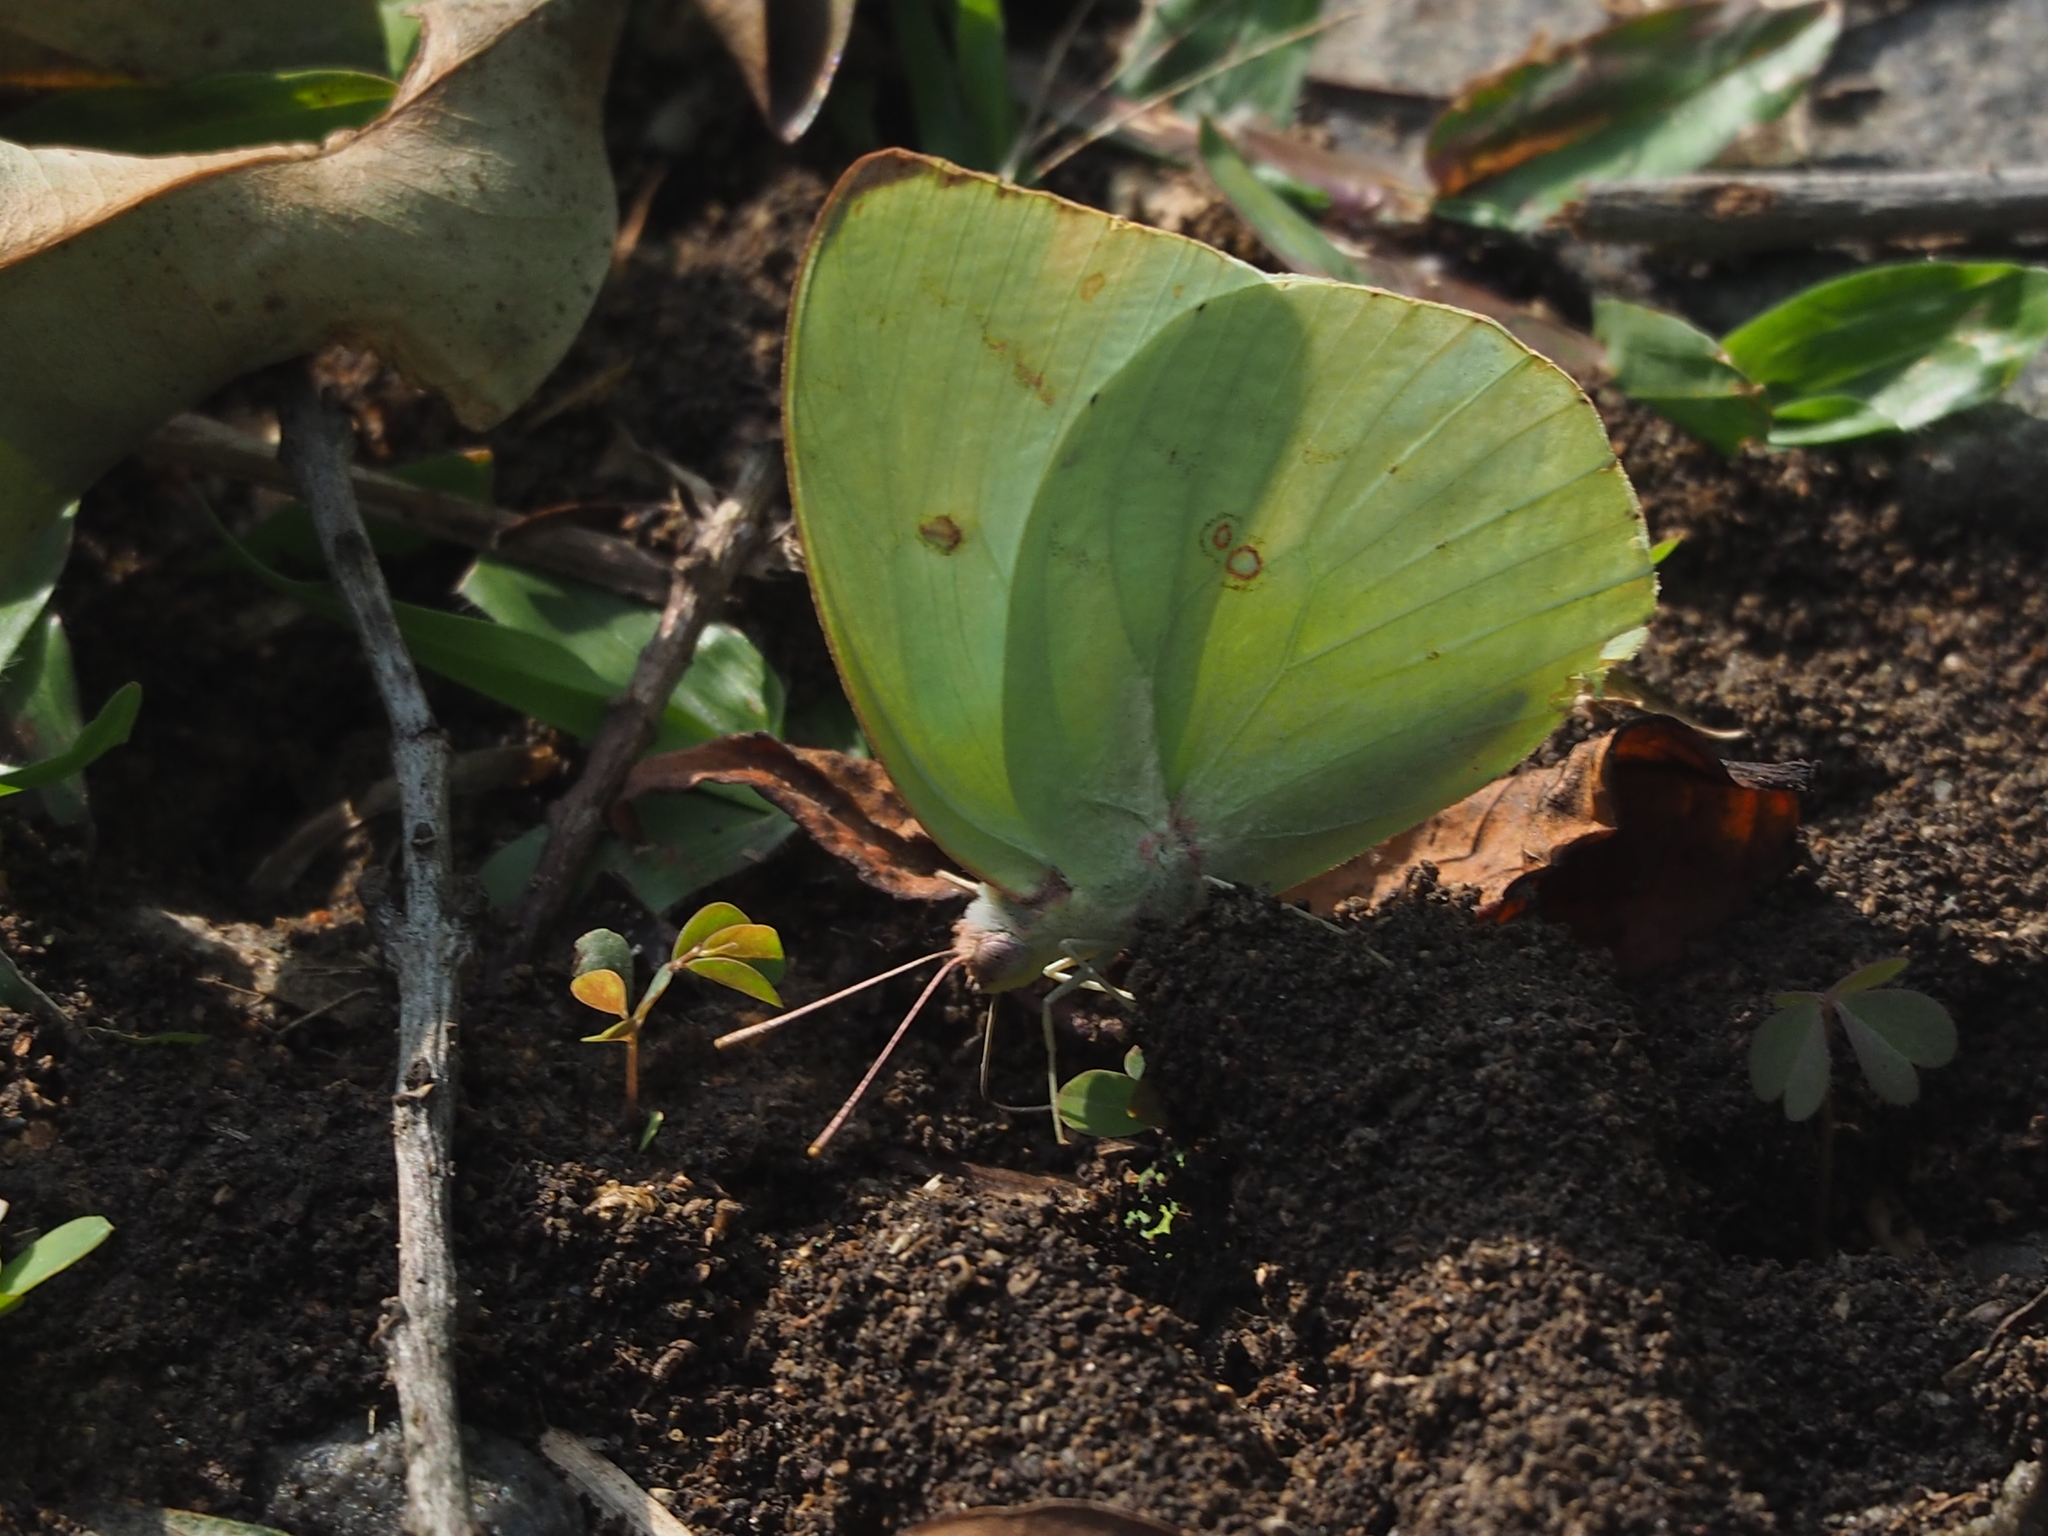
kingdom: Animalia
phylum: Arthropoda
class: Insecta
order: Lepidoptera
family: Pieridae
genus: Catopsilia
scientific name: Catopsilia pomona
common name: Common emigrant
